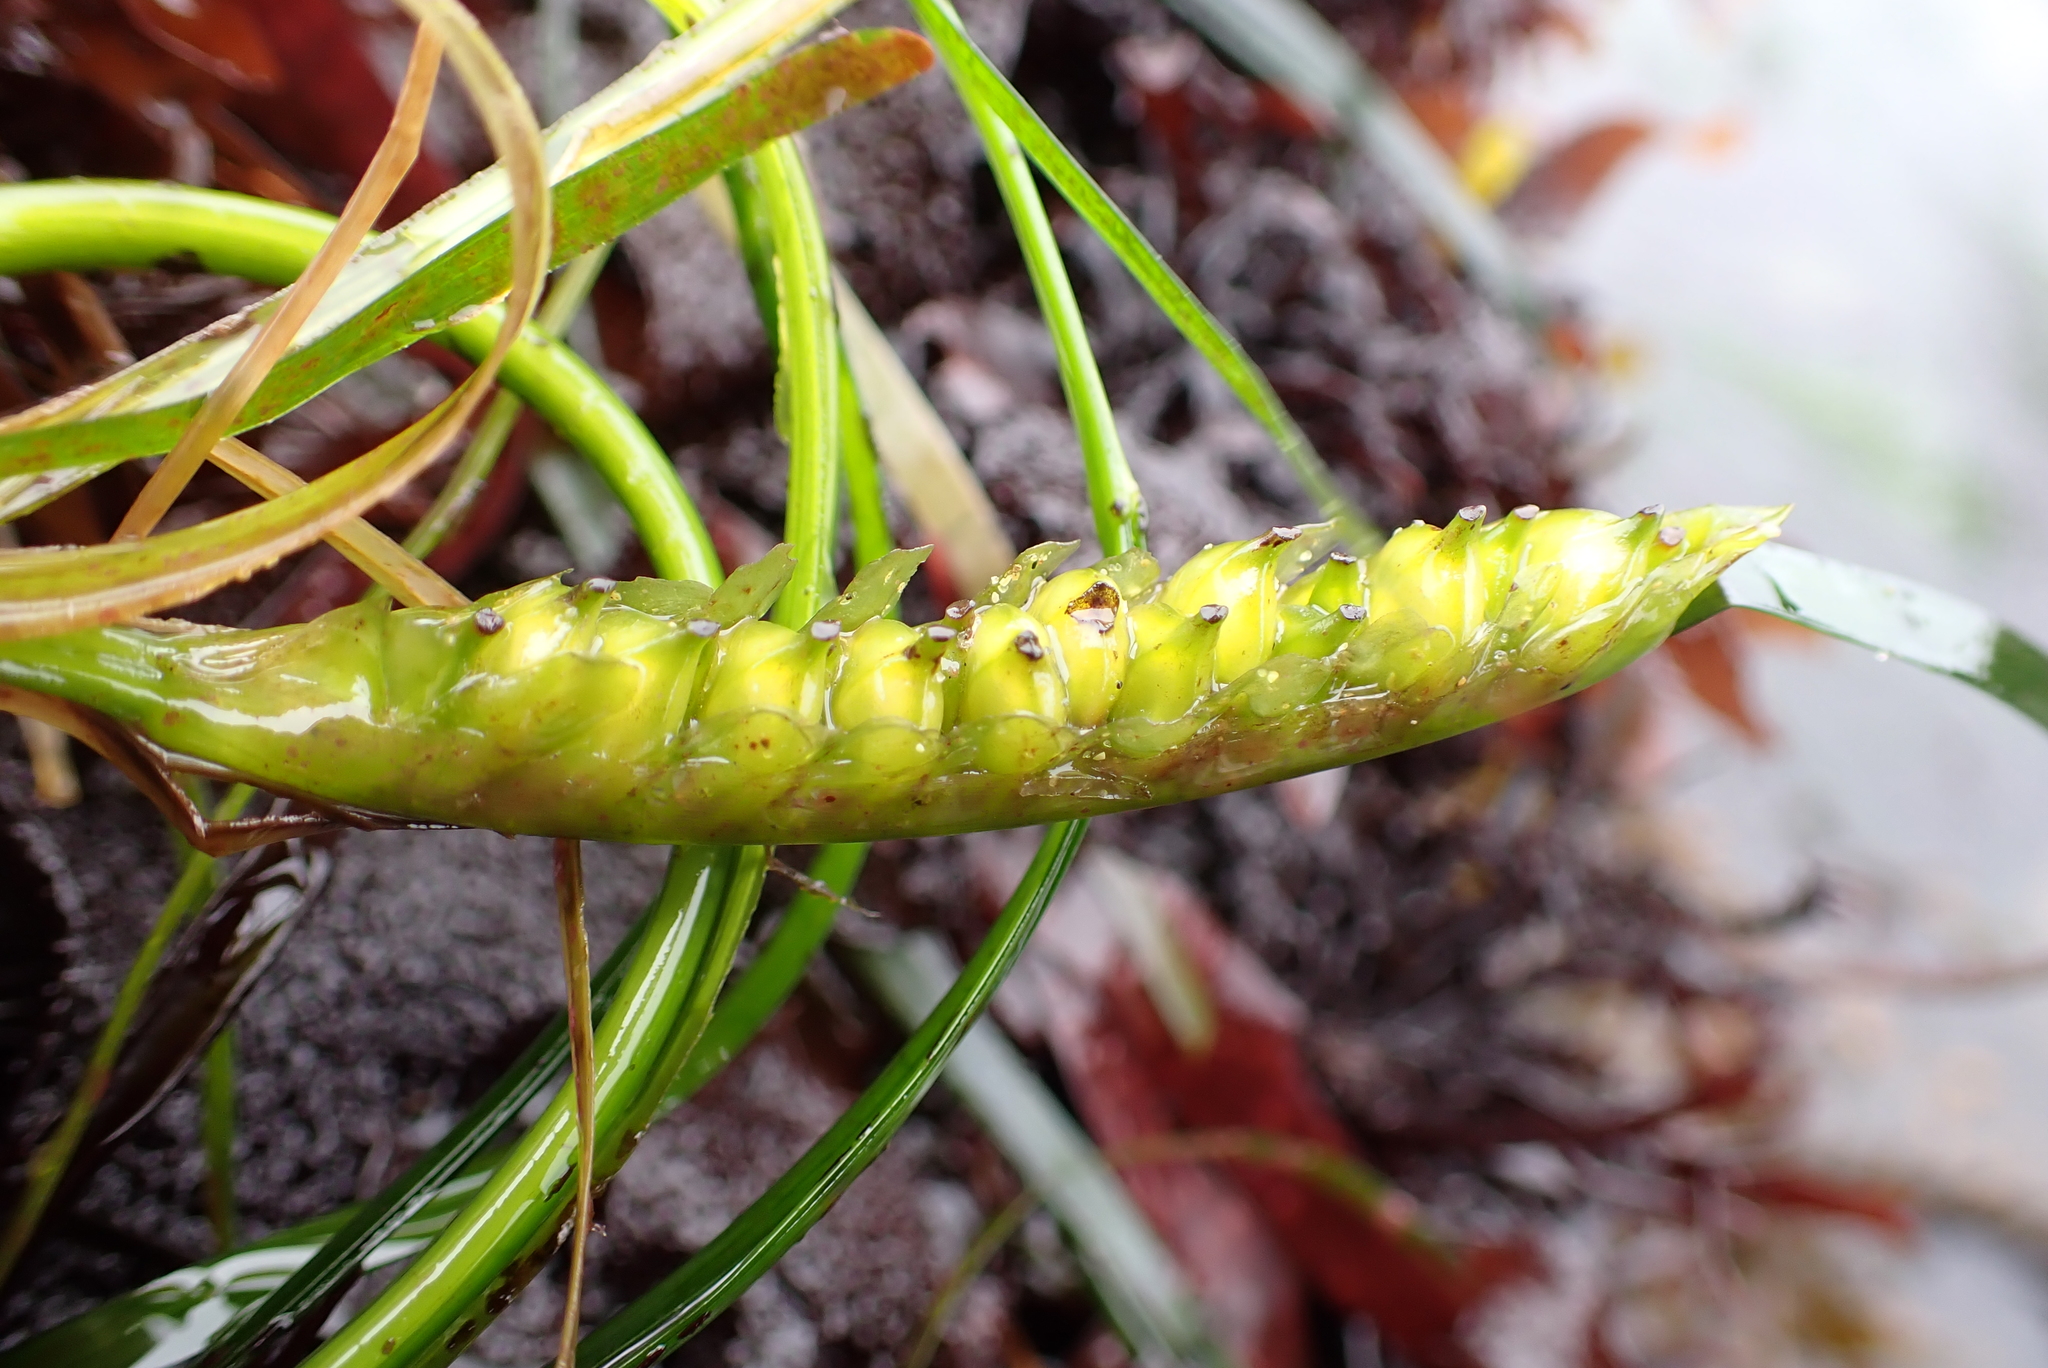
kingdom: Plantae
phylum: Tracheophyta
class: Liliopsida
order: Alismatales
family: Zosteraceae
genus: Phyllospadix
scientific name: Phyllospadix scouleri
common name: Species code: ps
